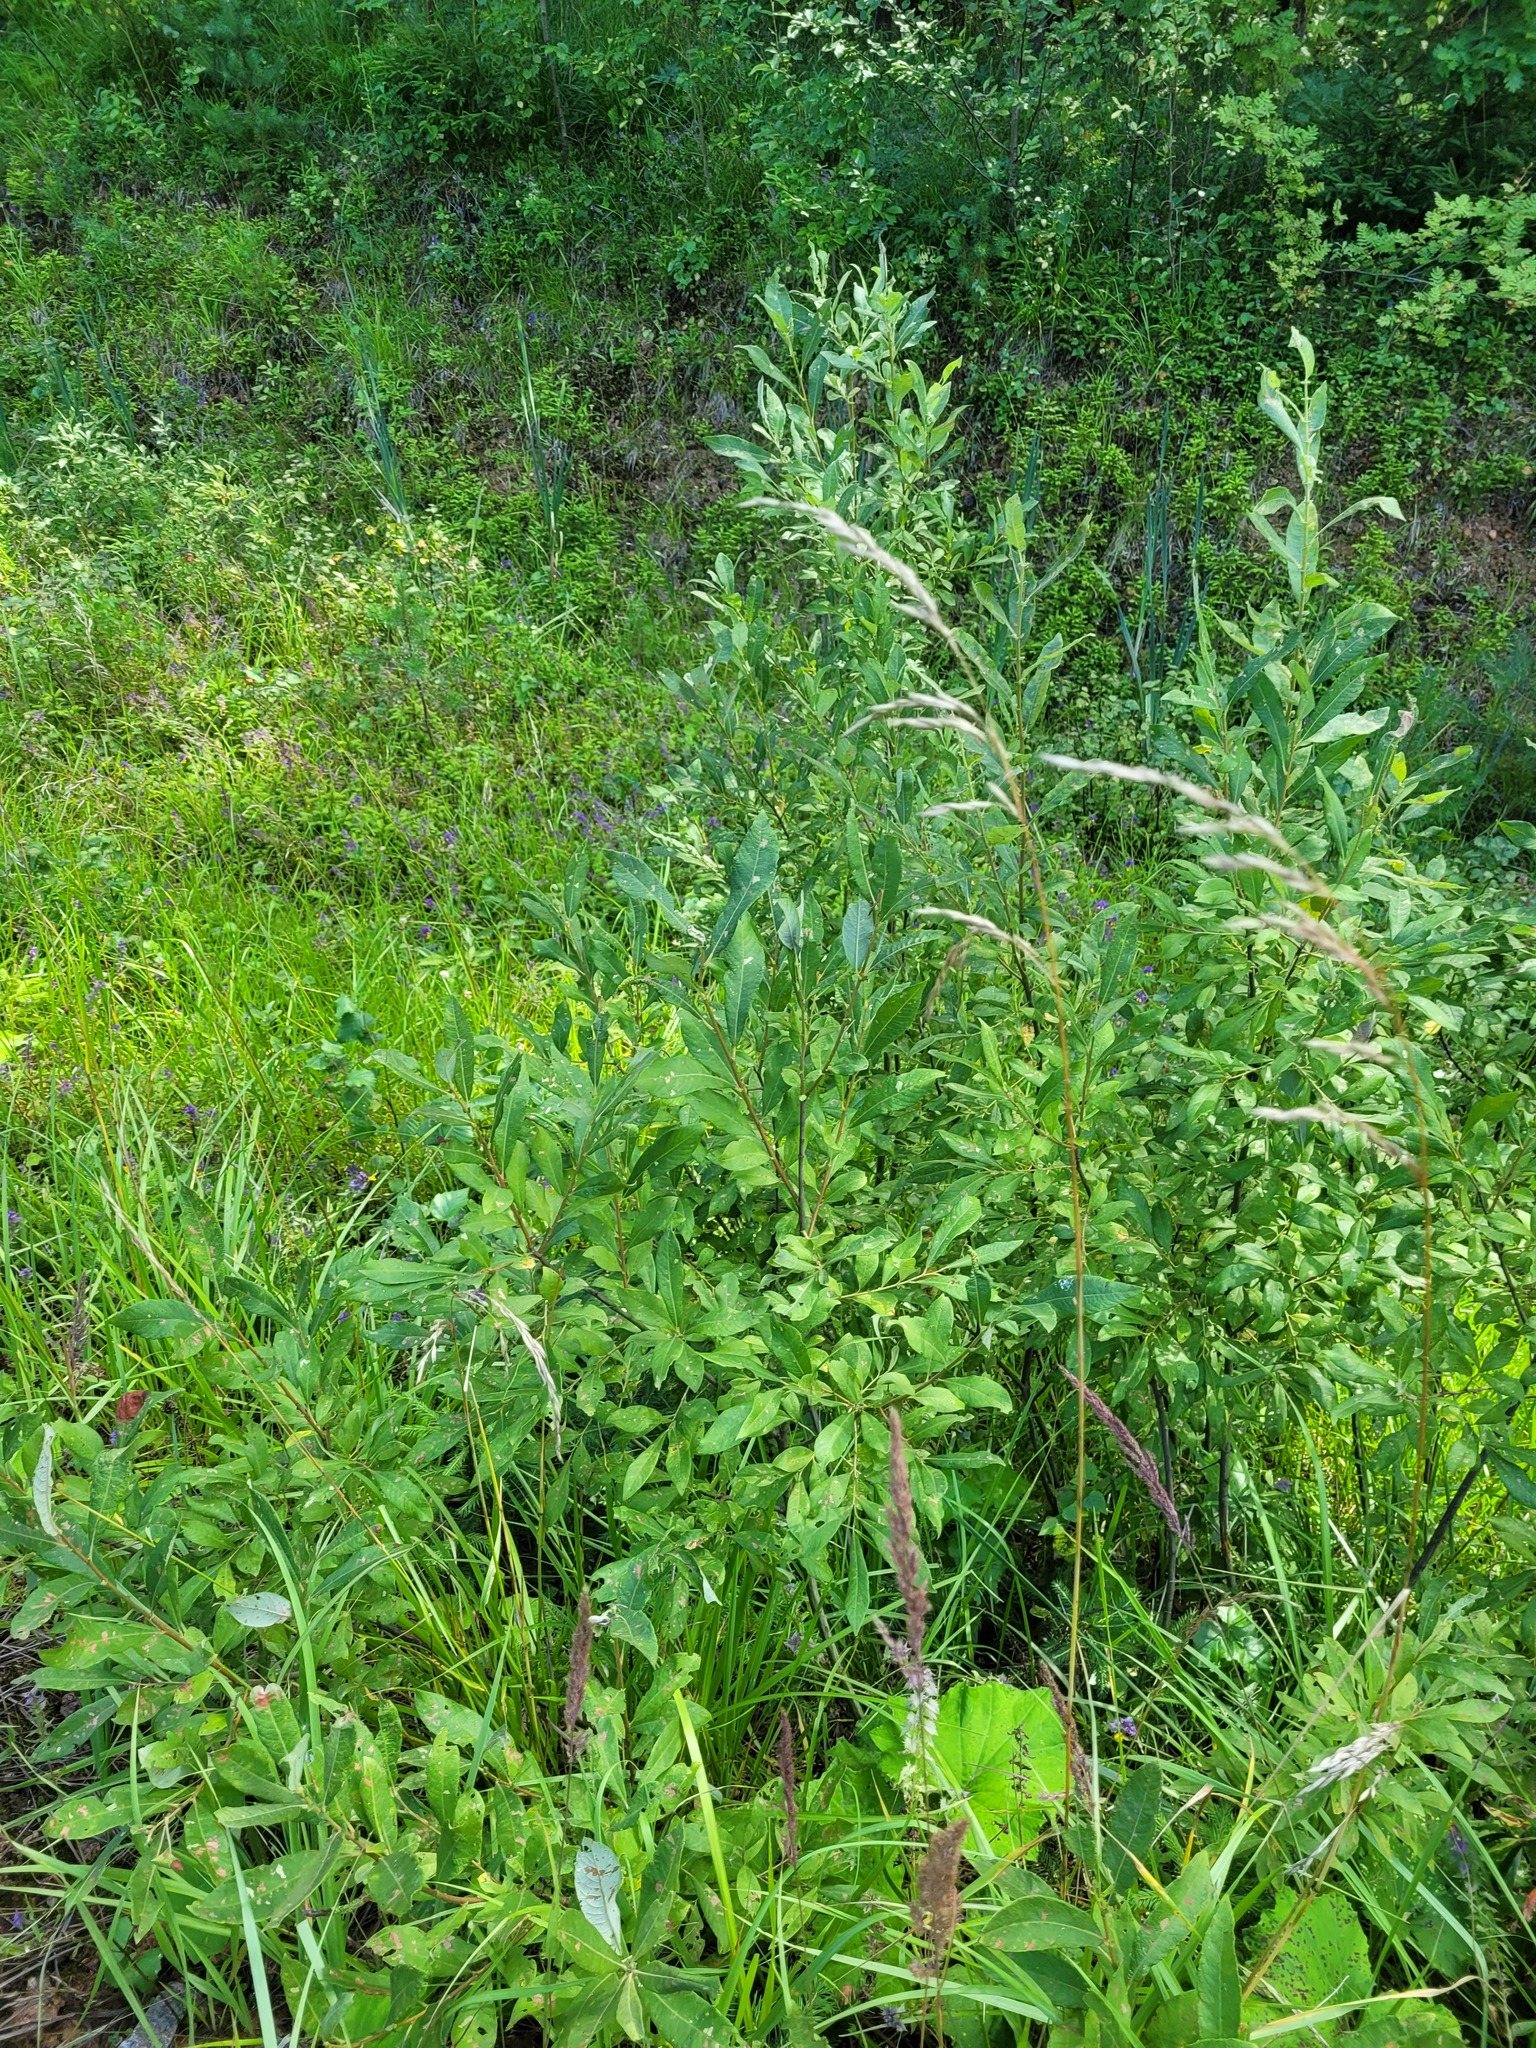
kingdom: Plantae
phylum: Tracheophyta
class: Magnoliopsida
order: Malpighiales
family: Salicaceae
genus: Salix
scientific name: Salix cinerea
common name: Common sallow
